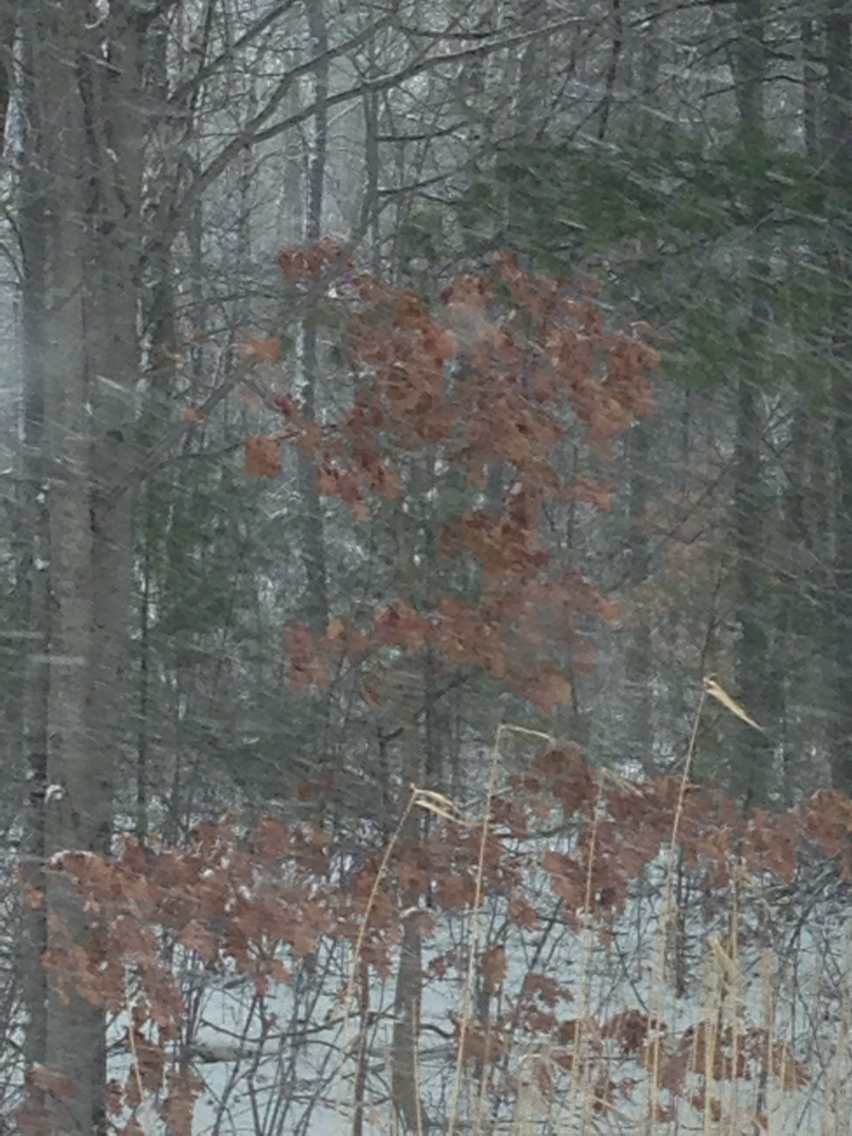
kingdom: Plantae
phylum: Tracheophyta
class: Magnoliopsida
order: Fagales
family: Fagaceae
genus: Quercus
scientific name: Quercus alba
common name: White oak
